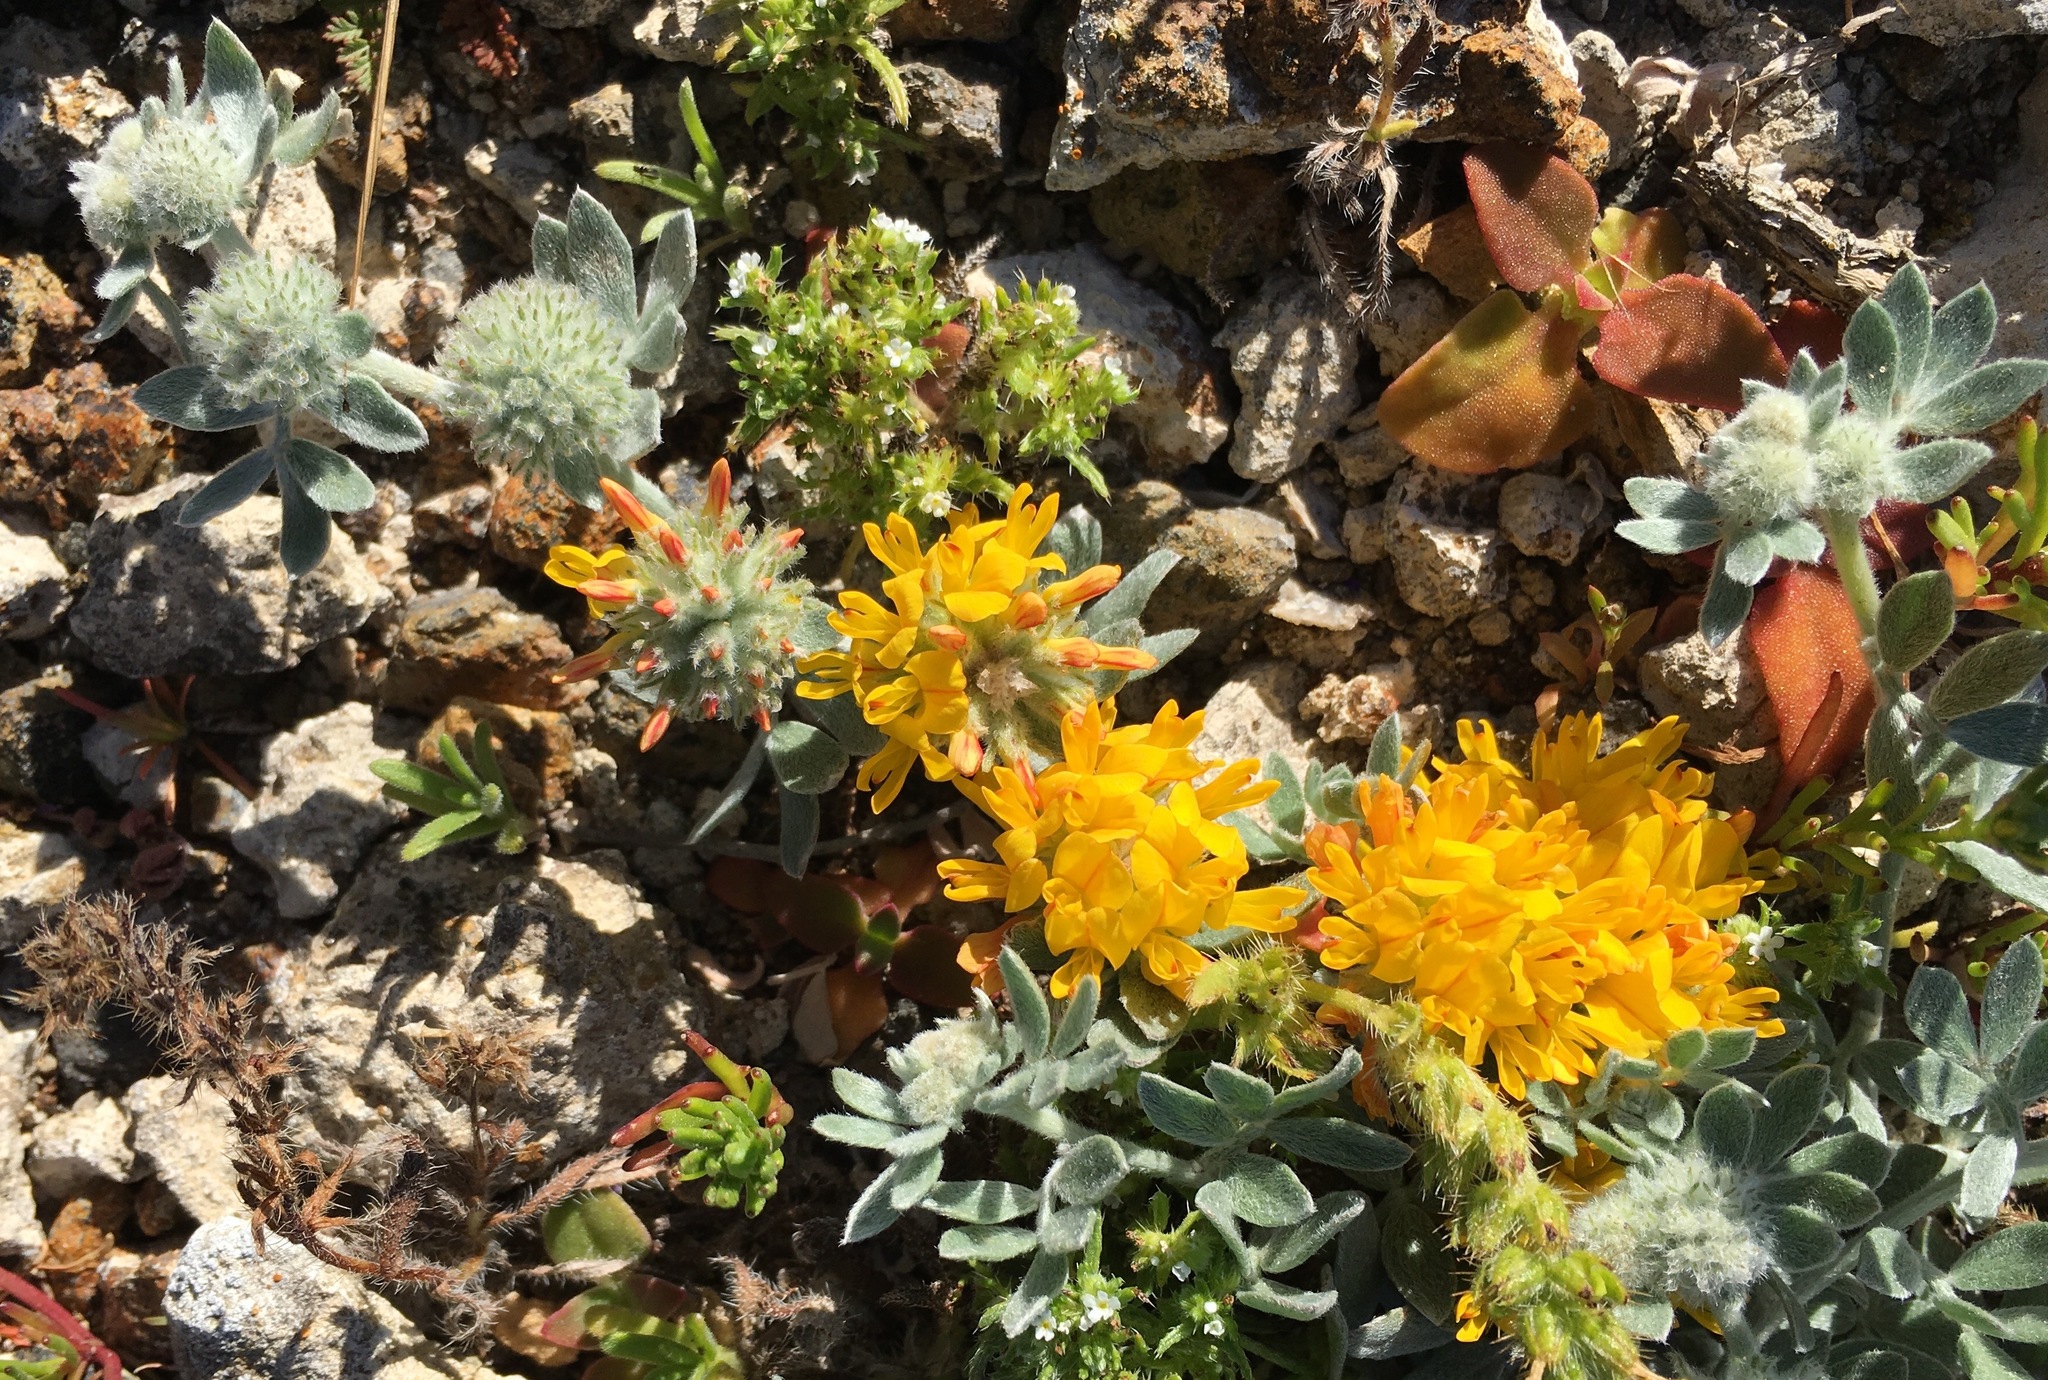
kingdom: Plantae
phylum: Tracheophyta
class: Magnoliopsida
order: Fabales
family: Fabaceae
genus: Acmispon
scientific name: Acmispon argophyllus
